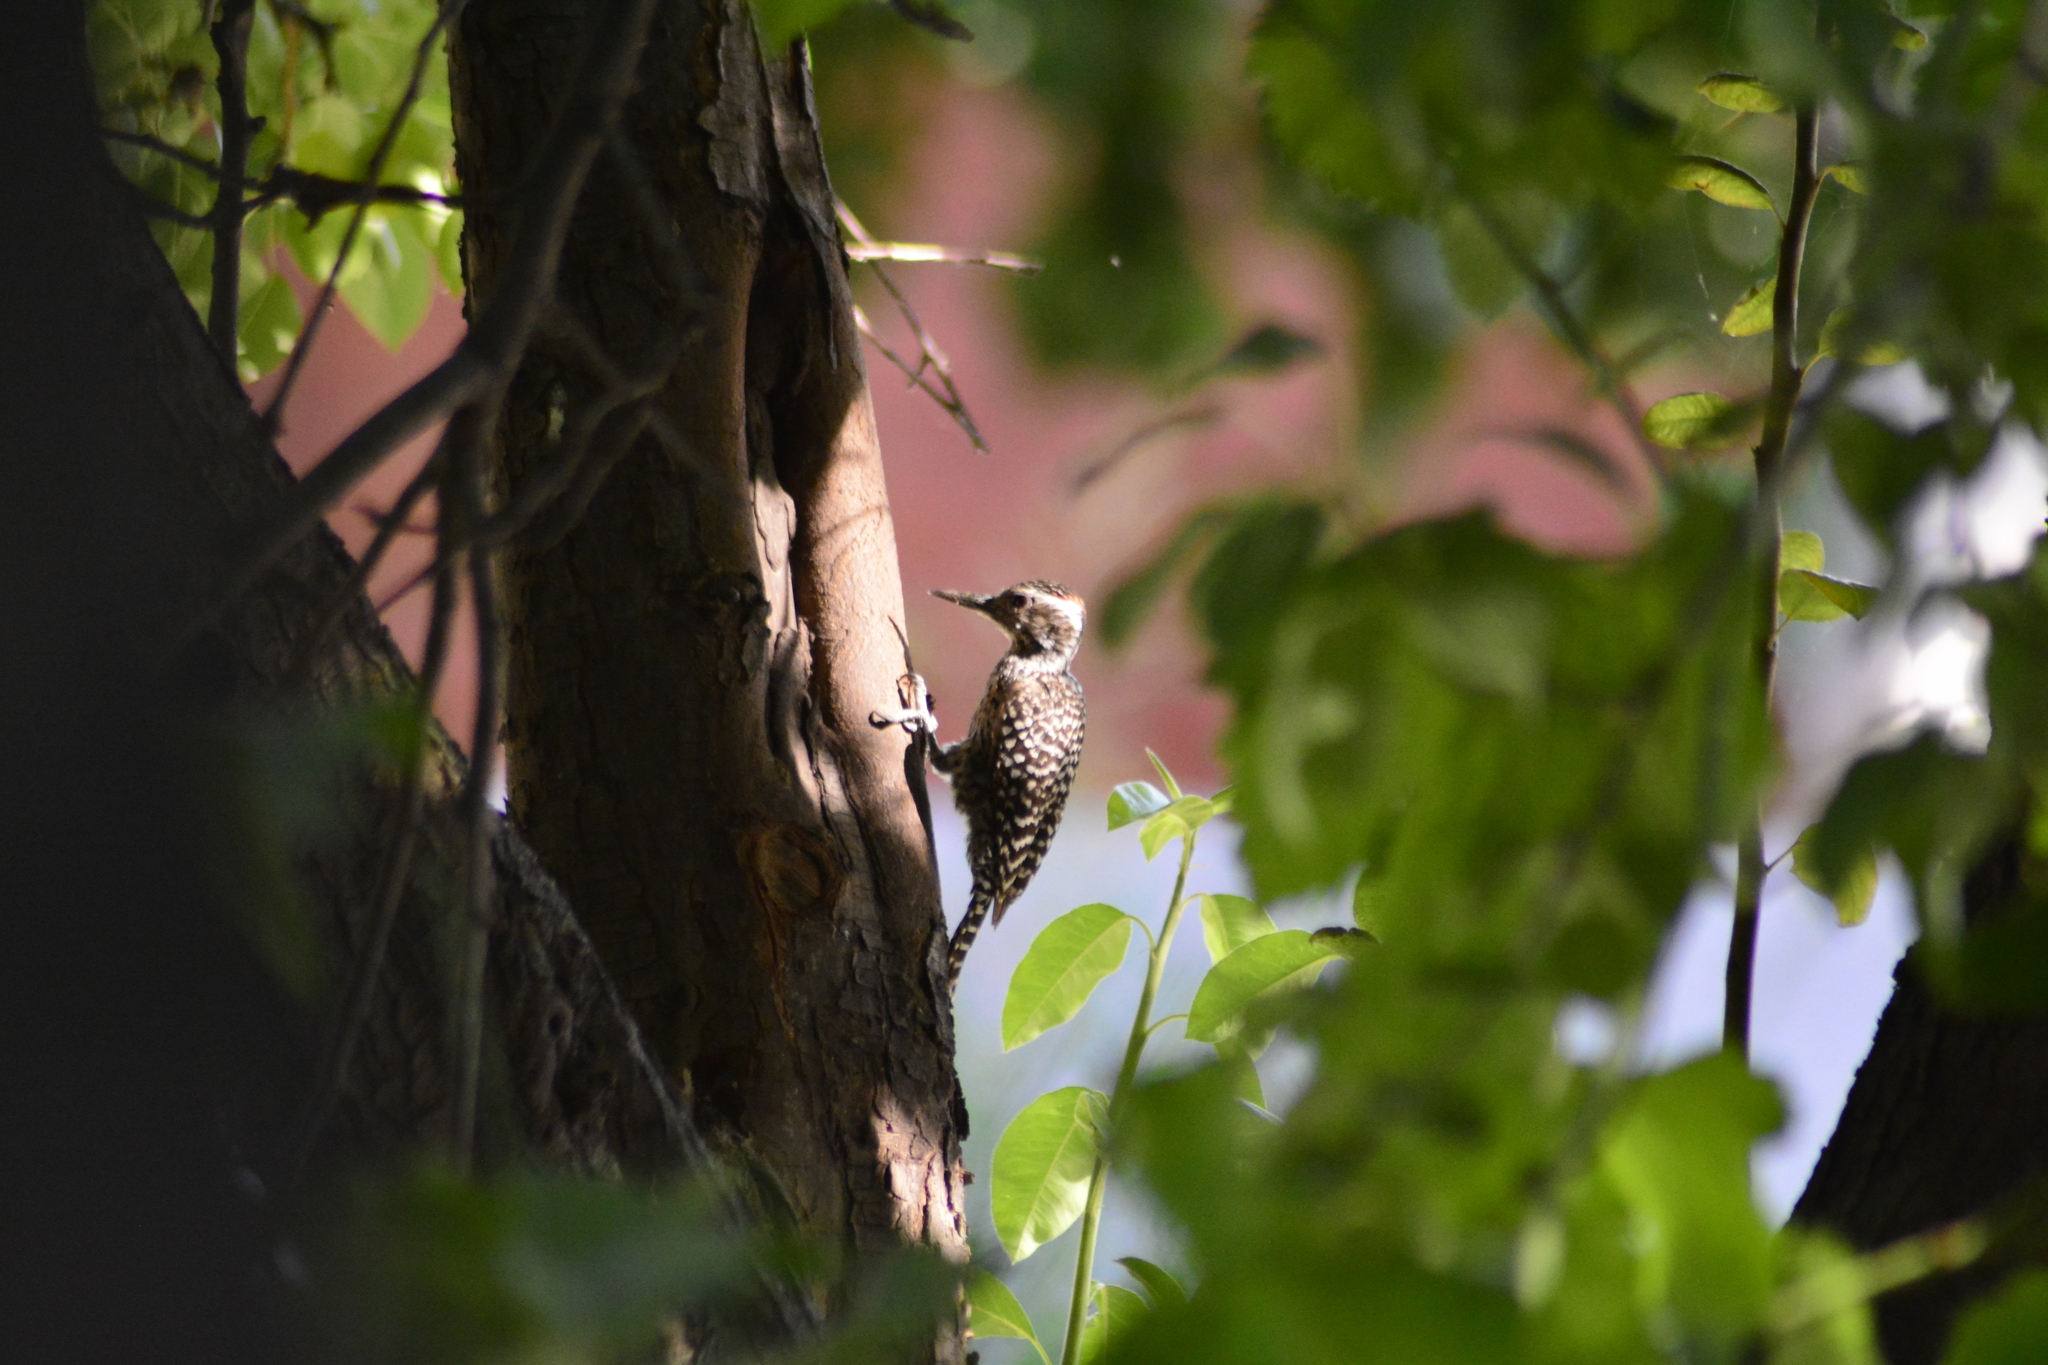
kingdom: Animalia
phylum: Chordata
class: Aves
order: Piciformes
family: Picidae
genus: Veniliornis
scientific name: Veniliornis mixtus
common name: Checkered woodpecker
